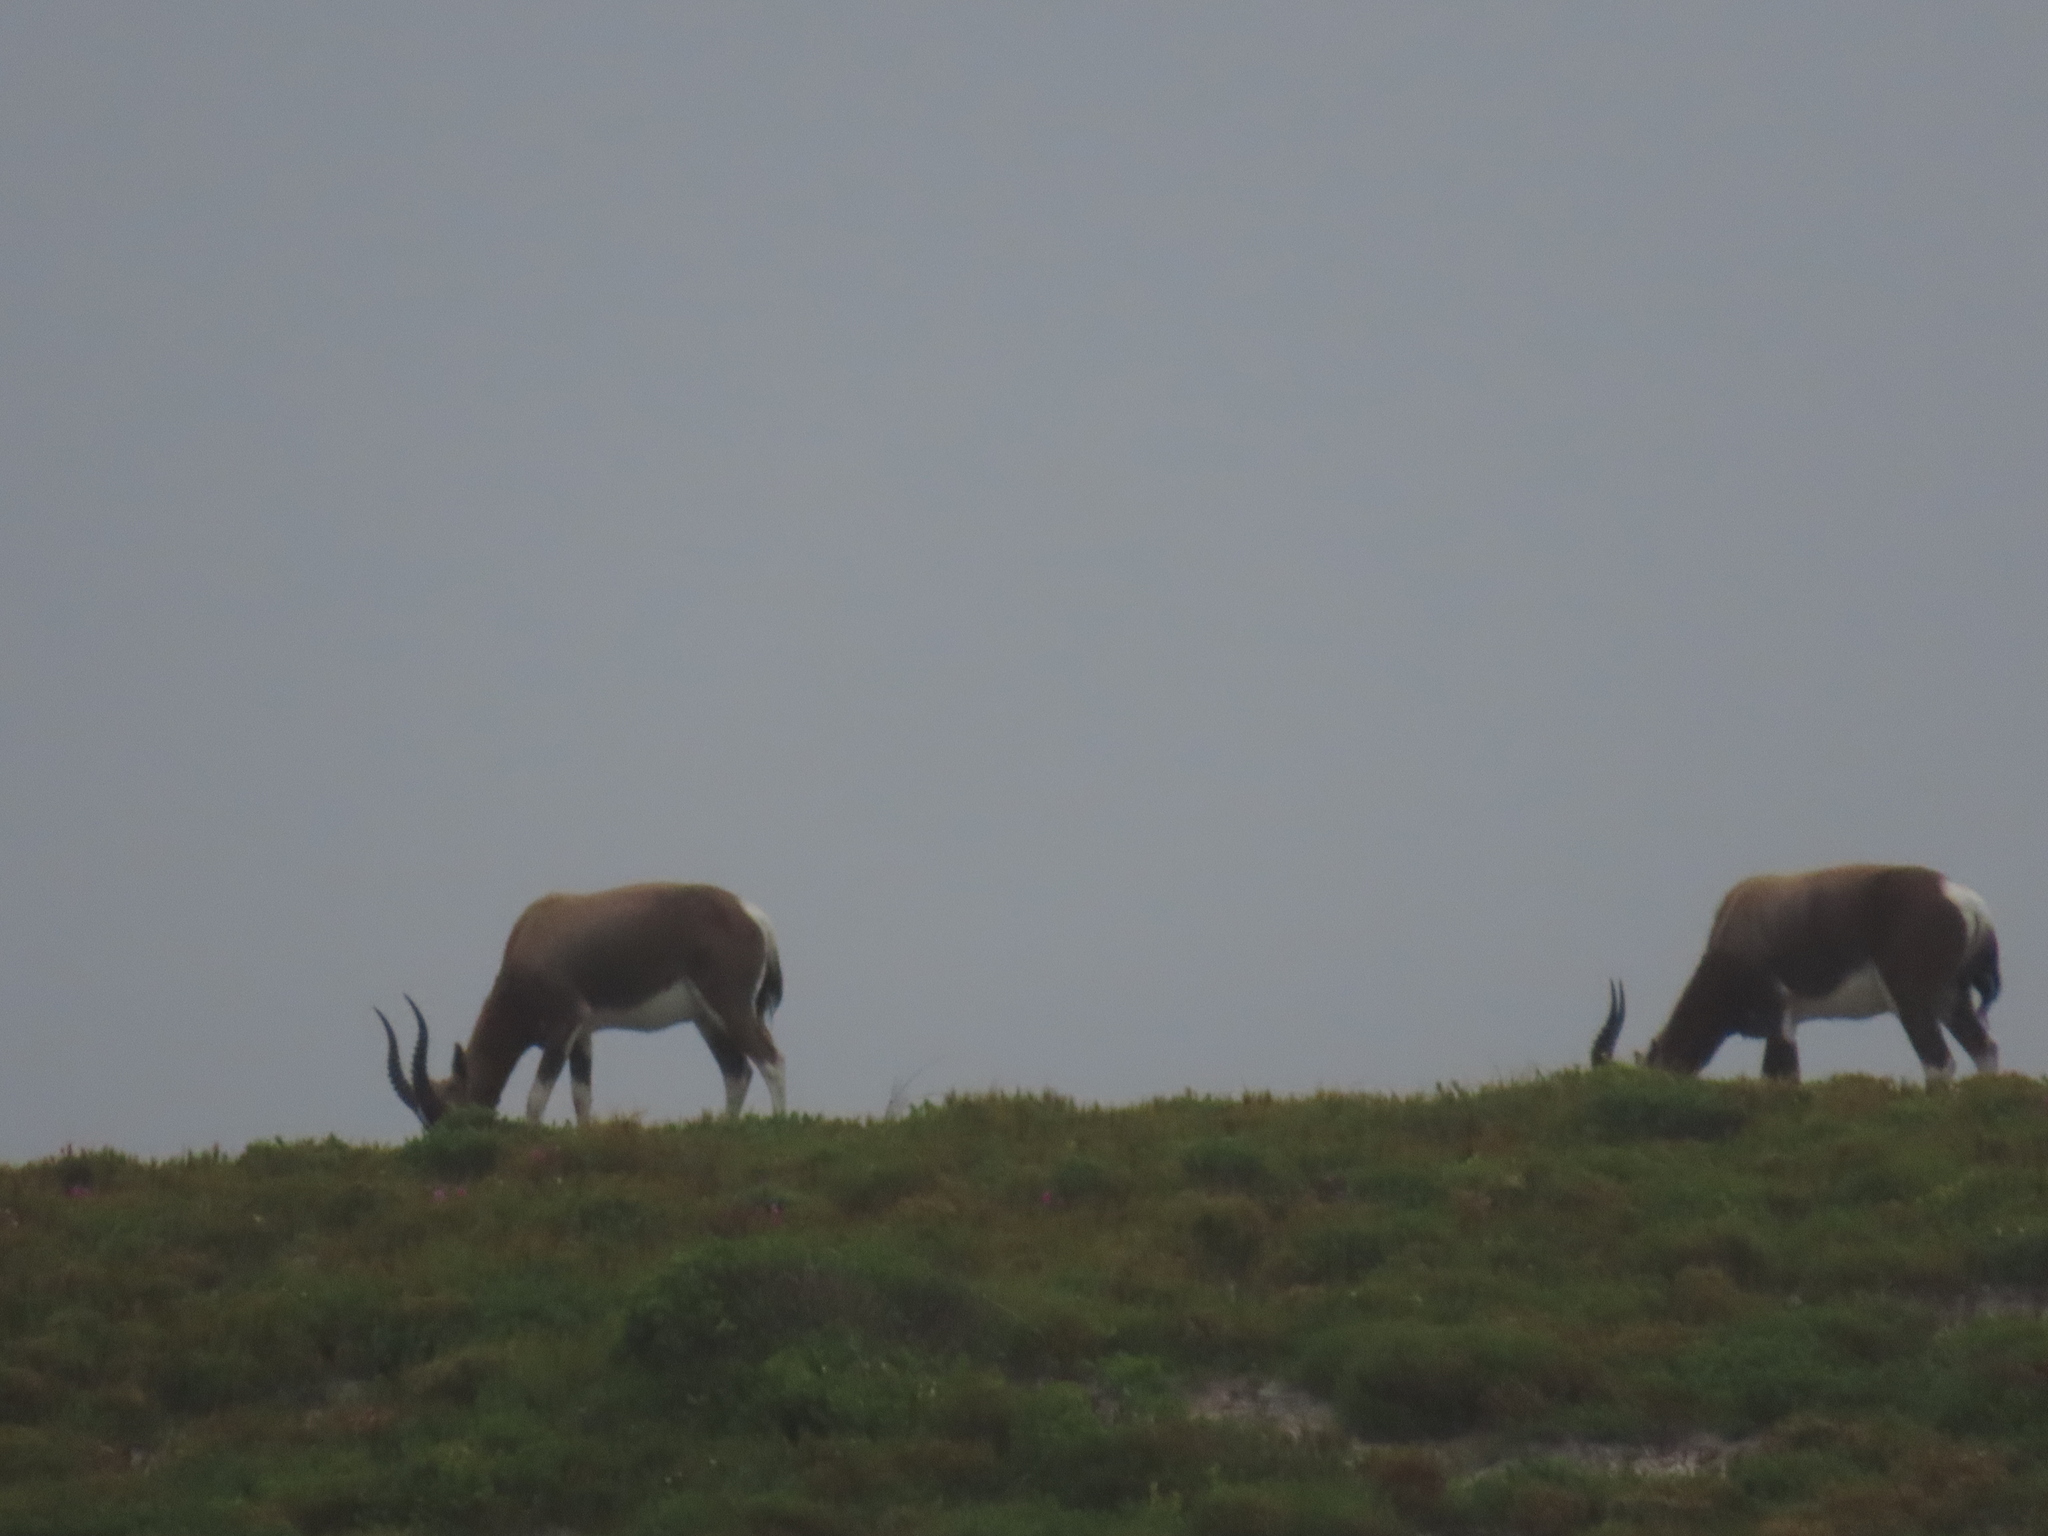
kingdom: Animalia
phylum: Chordata
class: Mammalia
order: Artiodactyla
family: Bovidae
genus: Damaliscus
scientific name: Damaliscus pygargus
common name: Bontebok
